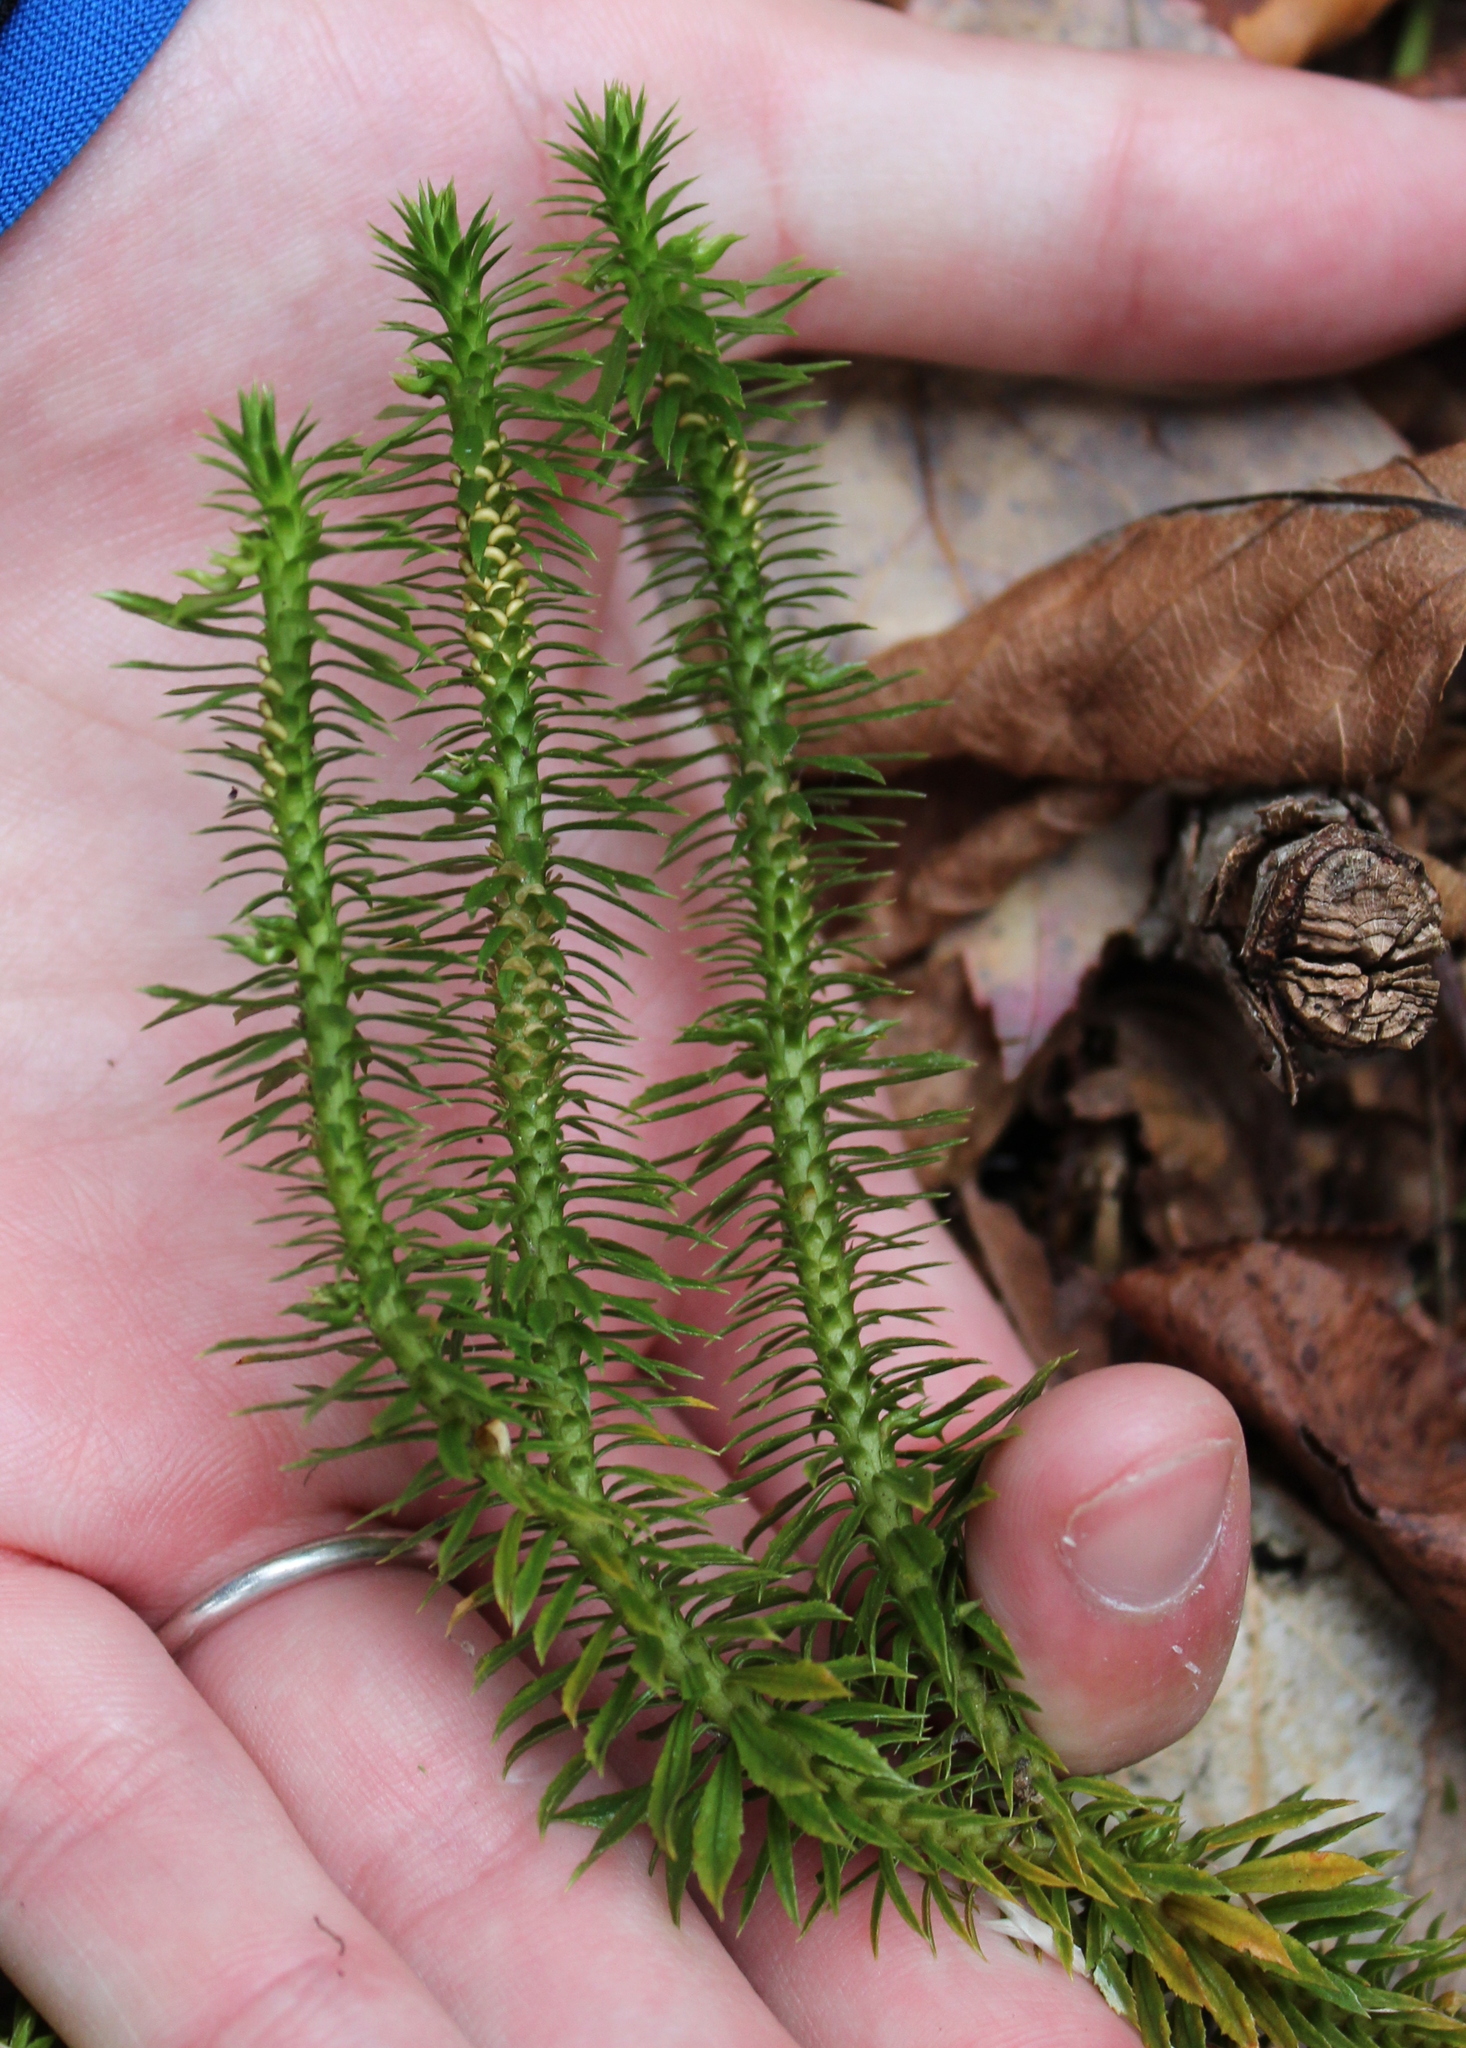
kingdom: Plantae
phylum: Tracheophyta
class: Lycopodiopsida
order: Lycopodiales
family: Lycopodiaceae
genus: Huperzia
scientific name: Huperzia lucidula
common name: Shining clubmoss
